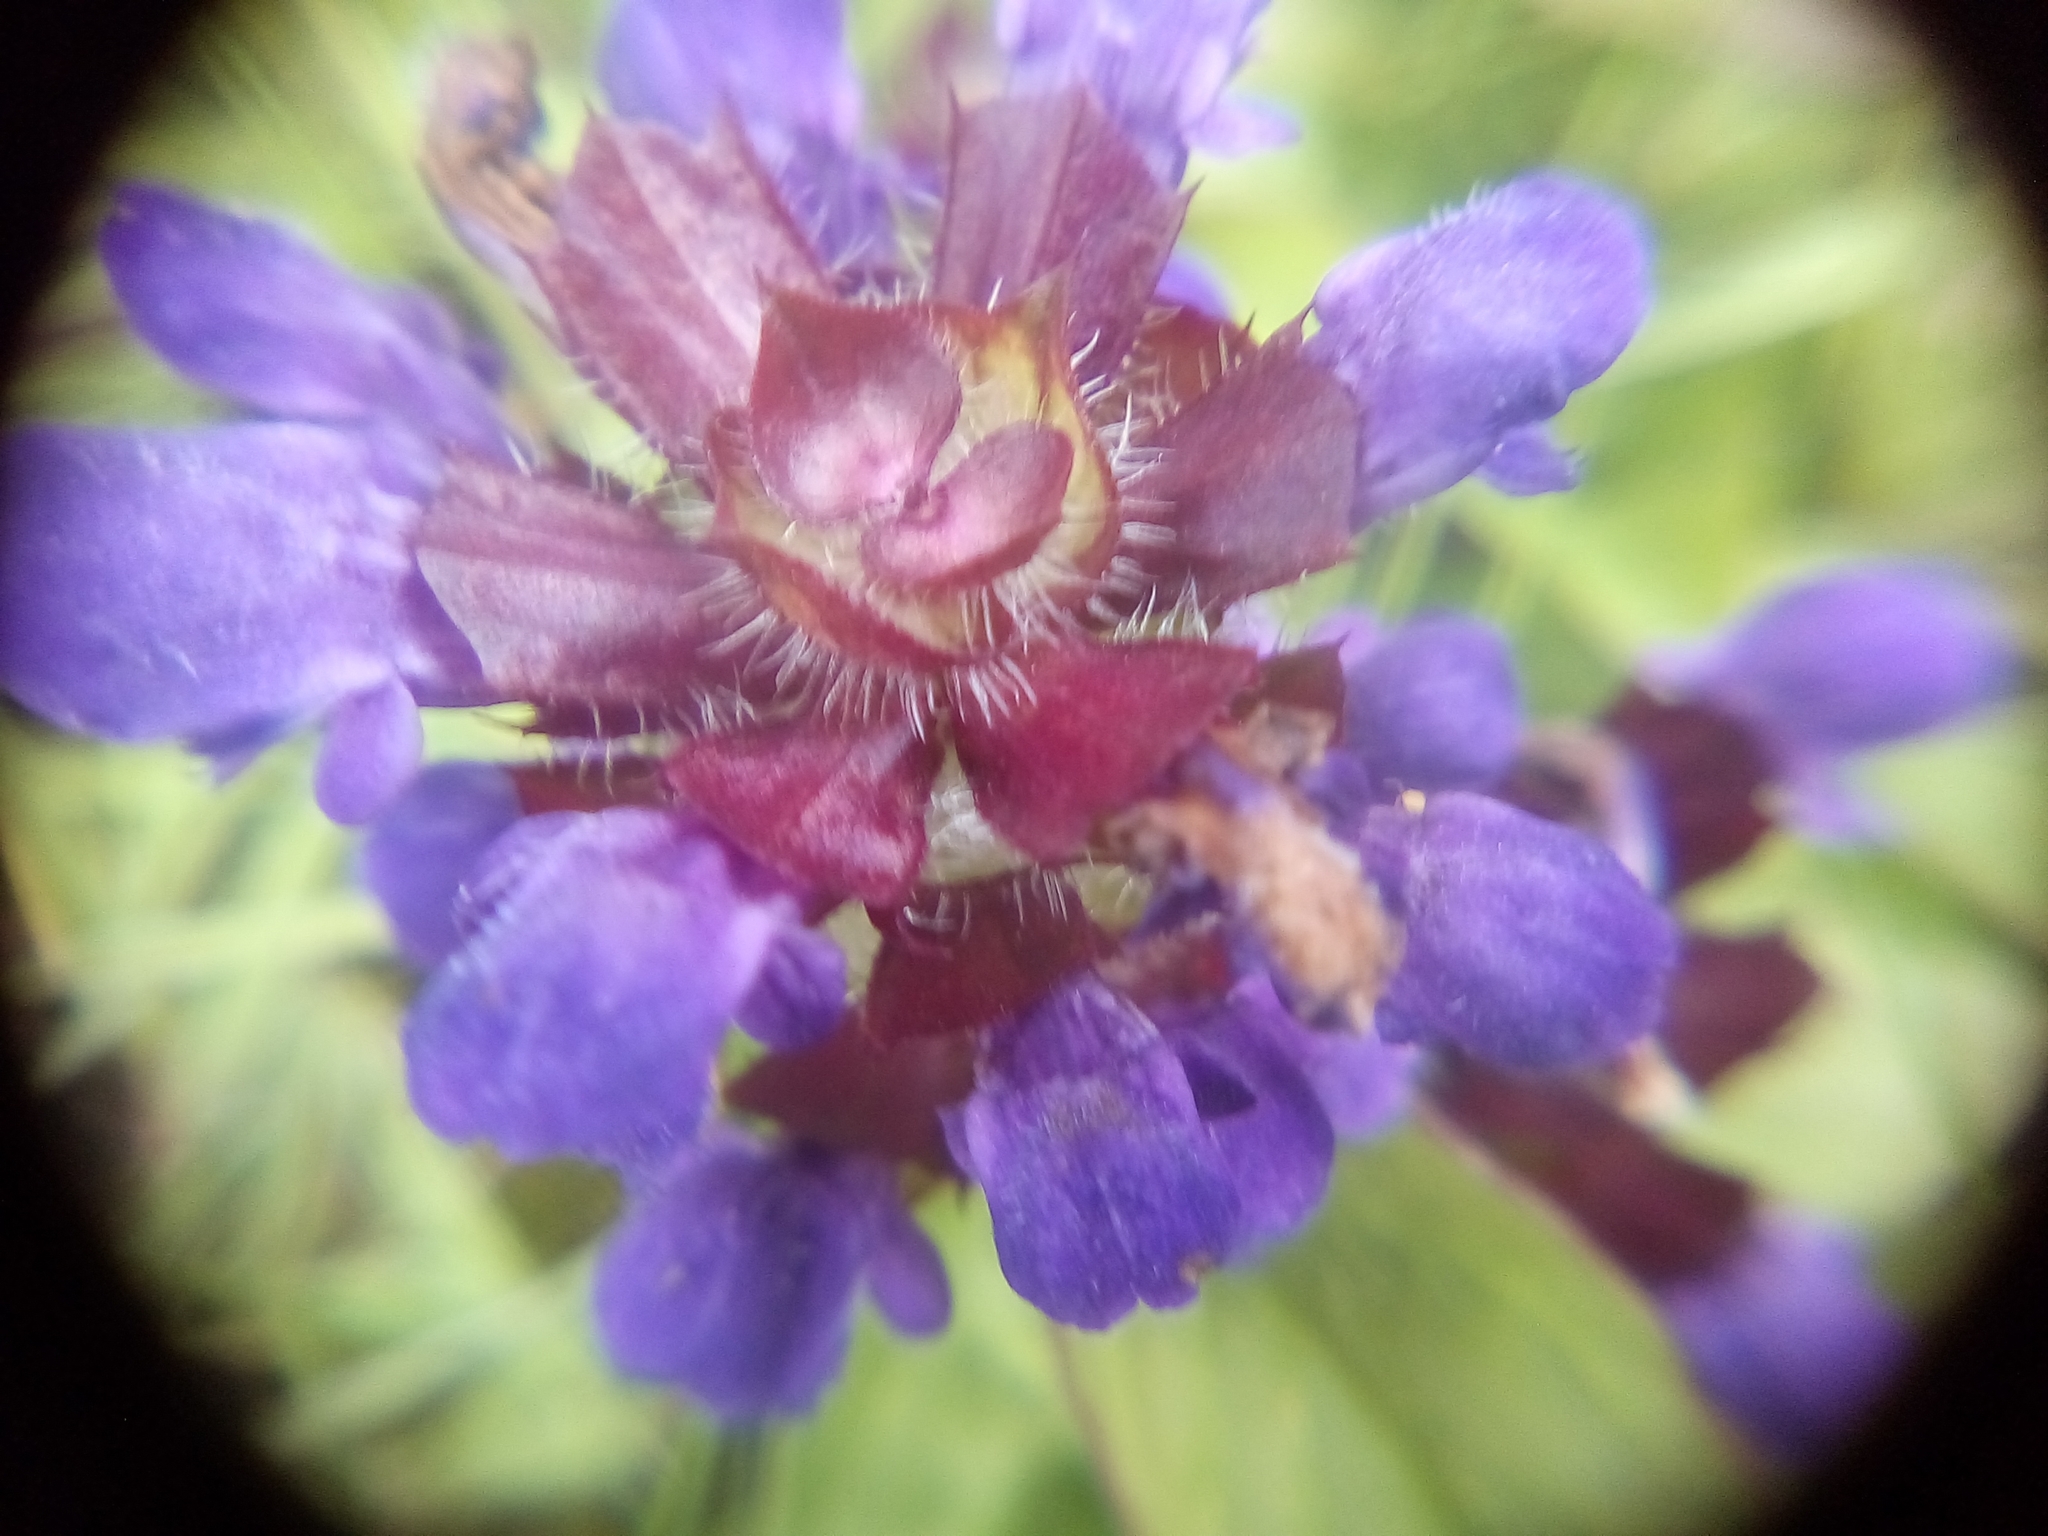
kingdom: Plantae
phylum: Tracheophyta
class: Magnoliopsida
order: Lamiales
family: Lamiaceae
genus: Prunella
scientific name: Prunella vulgaris
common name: Heal-all
